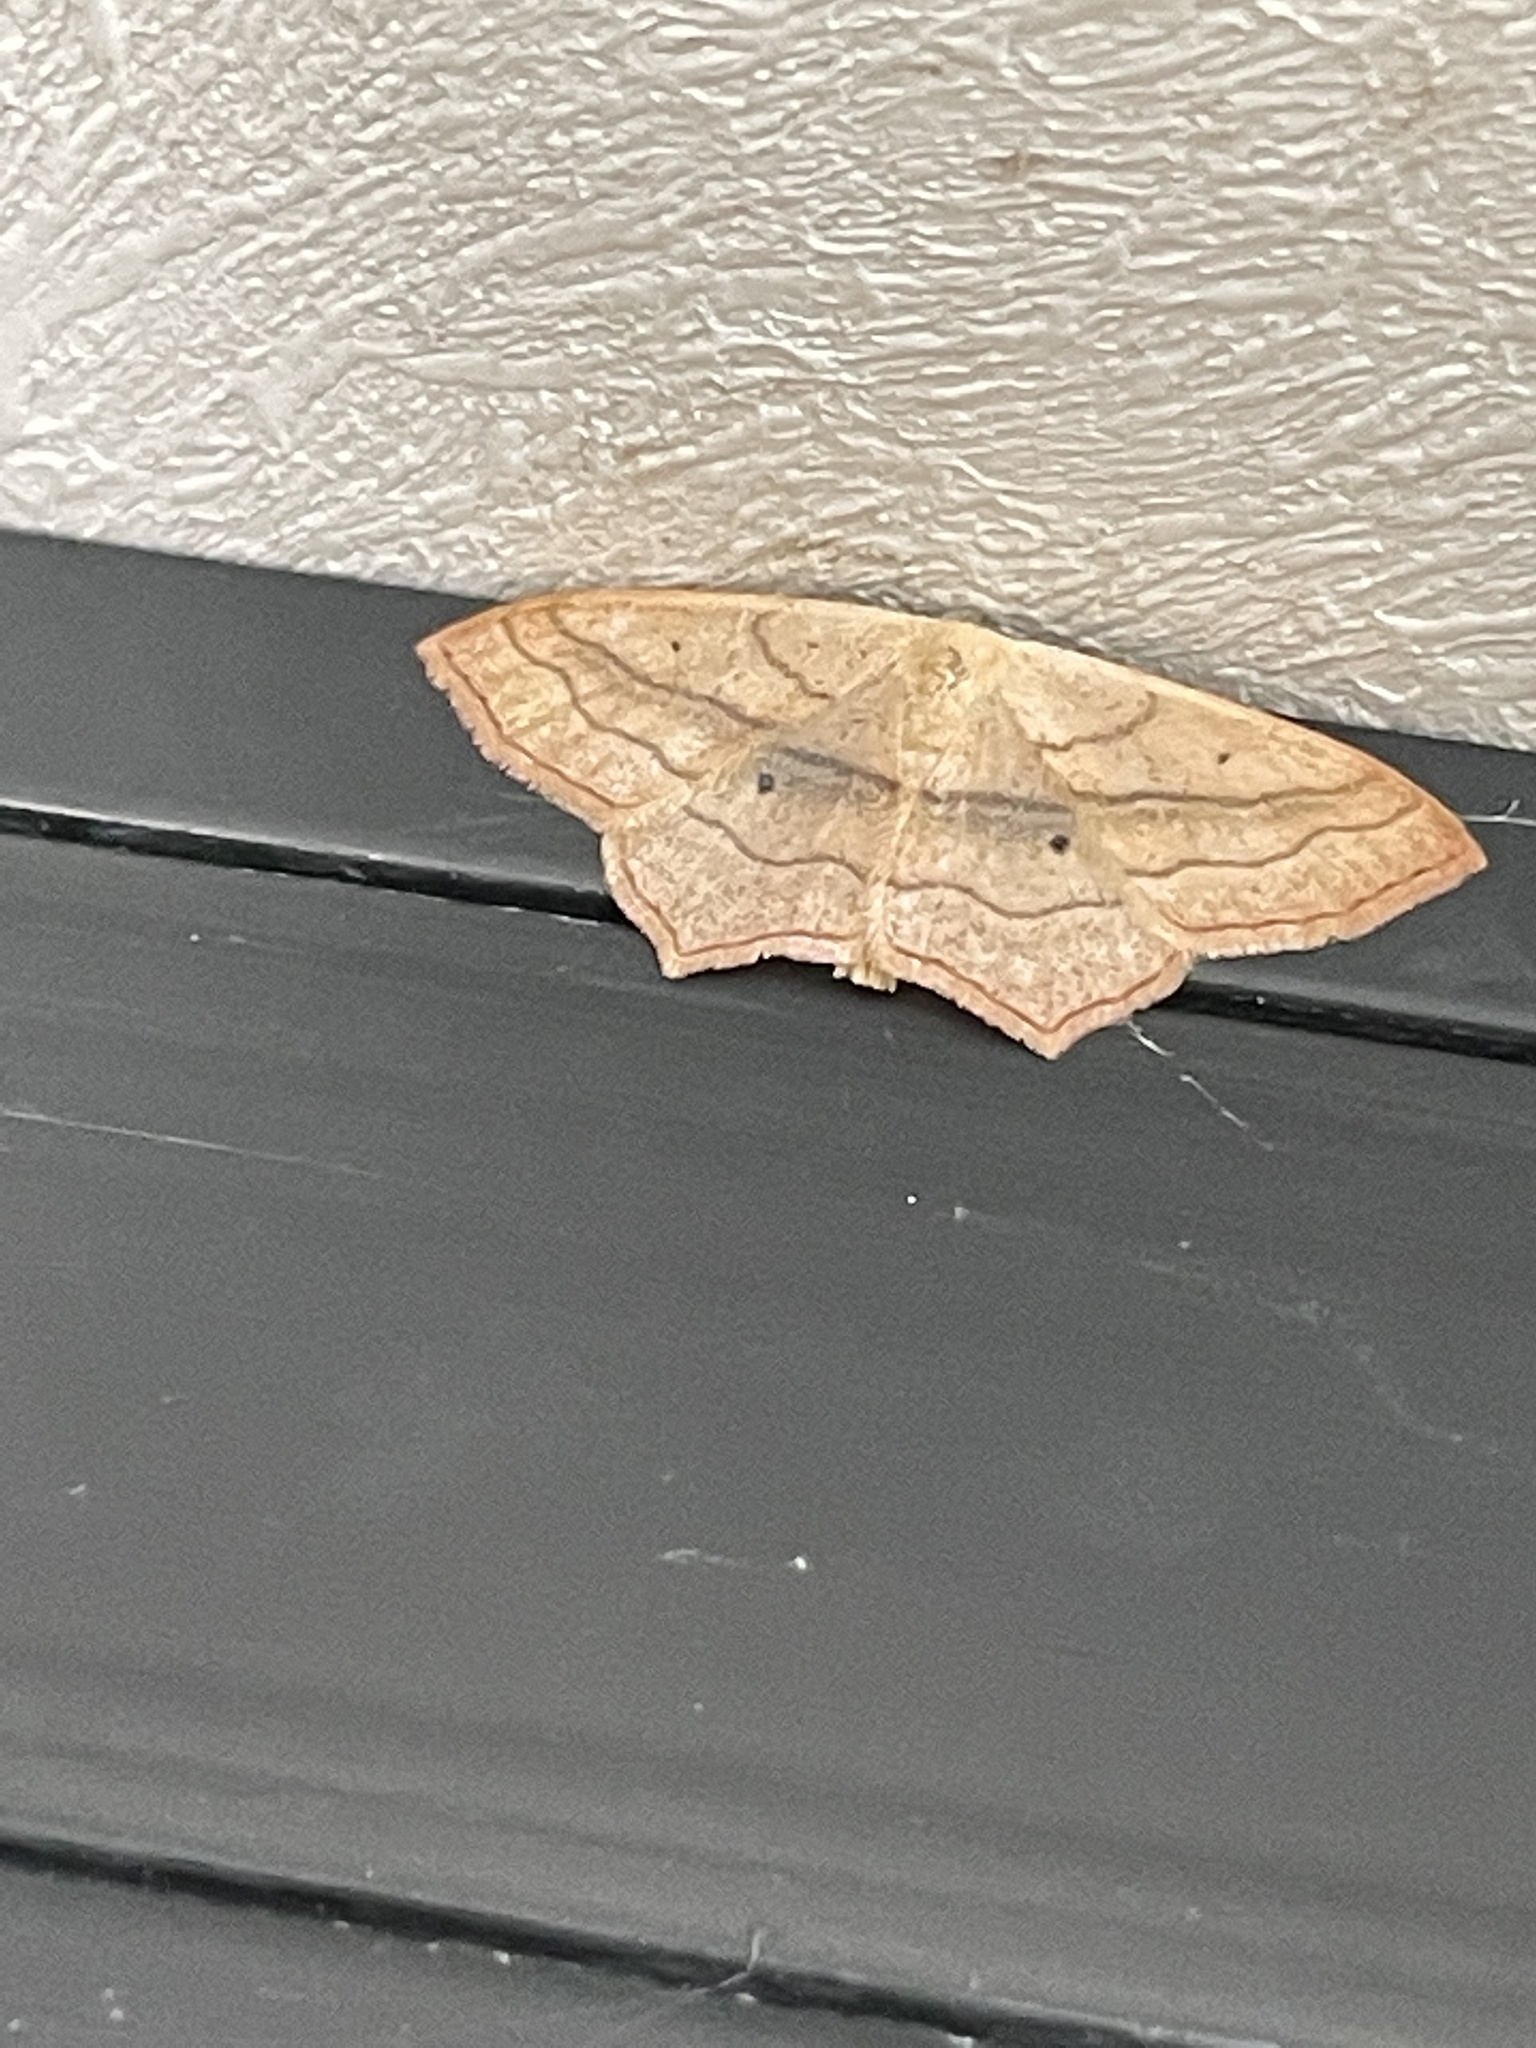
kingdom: Animalia
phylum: Arthropoda
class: Insecta
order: Lepidoptera
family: Geometridae
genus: Scopula
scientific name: Scopula imitaria
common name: Small blood-vein
